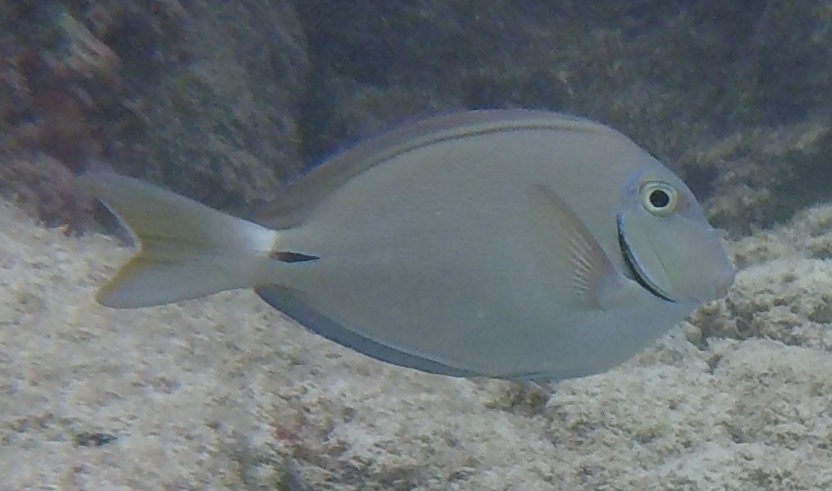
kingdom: Animalia
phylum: Chordata
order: Perciformes
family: Acanthuridae
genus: Acanthurus
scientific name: Acanthurus bahianus
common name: Ocean surgeon
